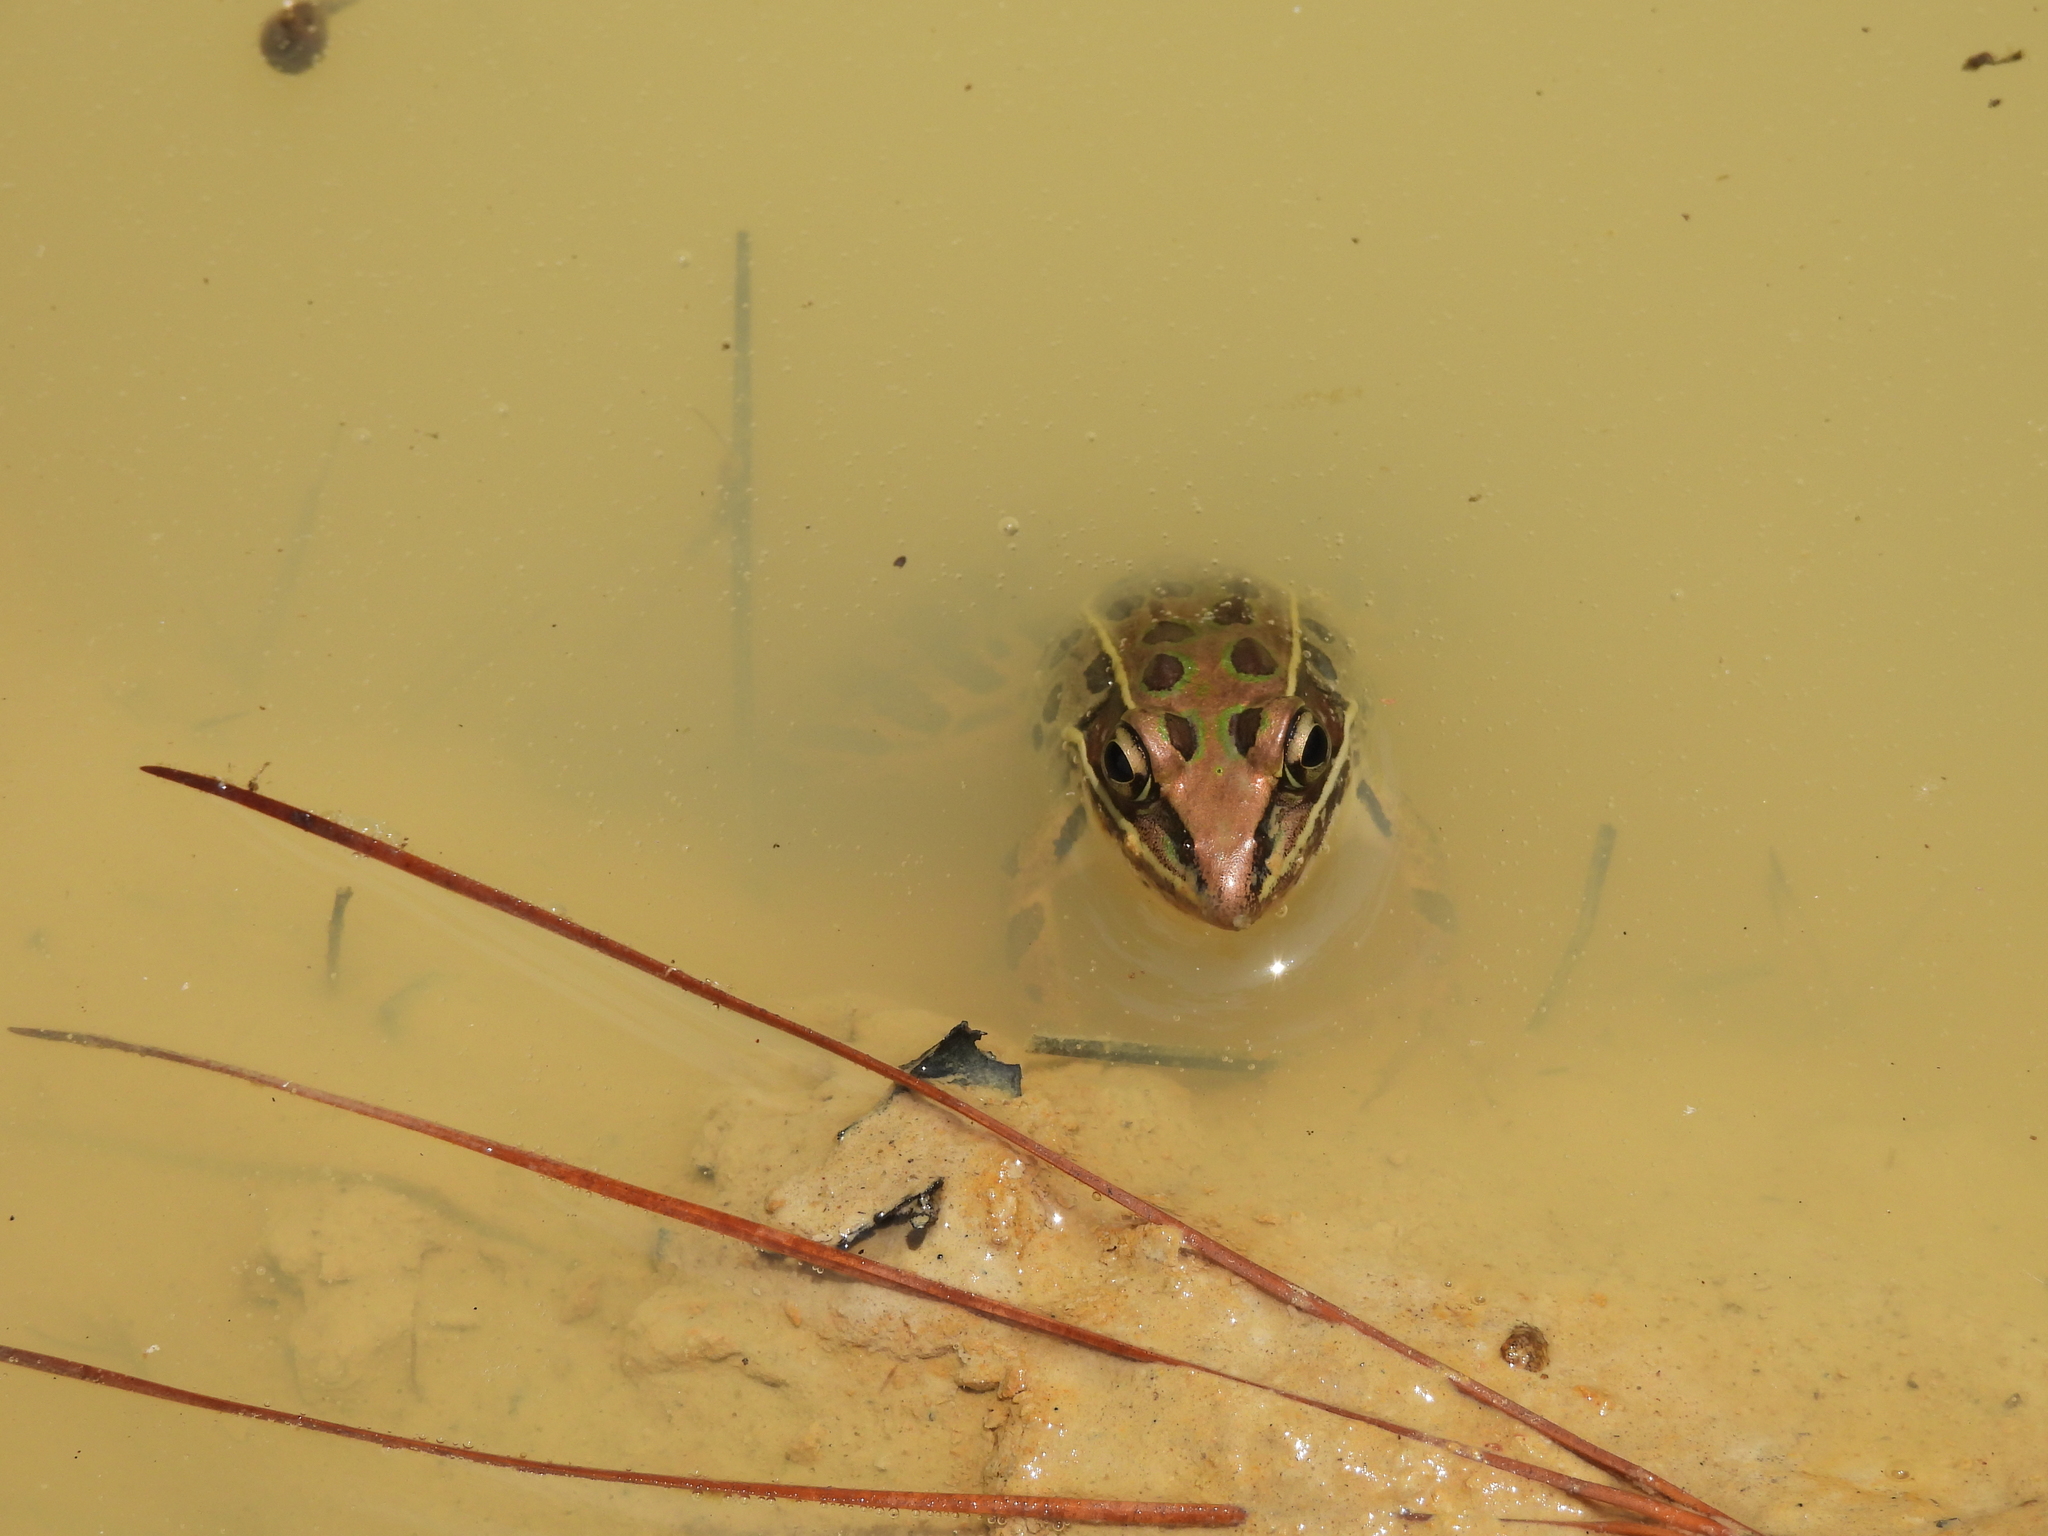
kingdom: Animalia
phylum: Chordata
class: Amphibia
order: Anura
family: Ranidae
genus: Lithobates
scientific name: Lithobates sphenocephalus
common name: Southern leopard frog
